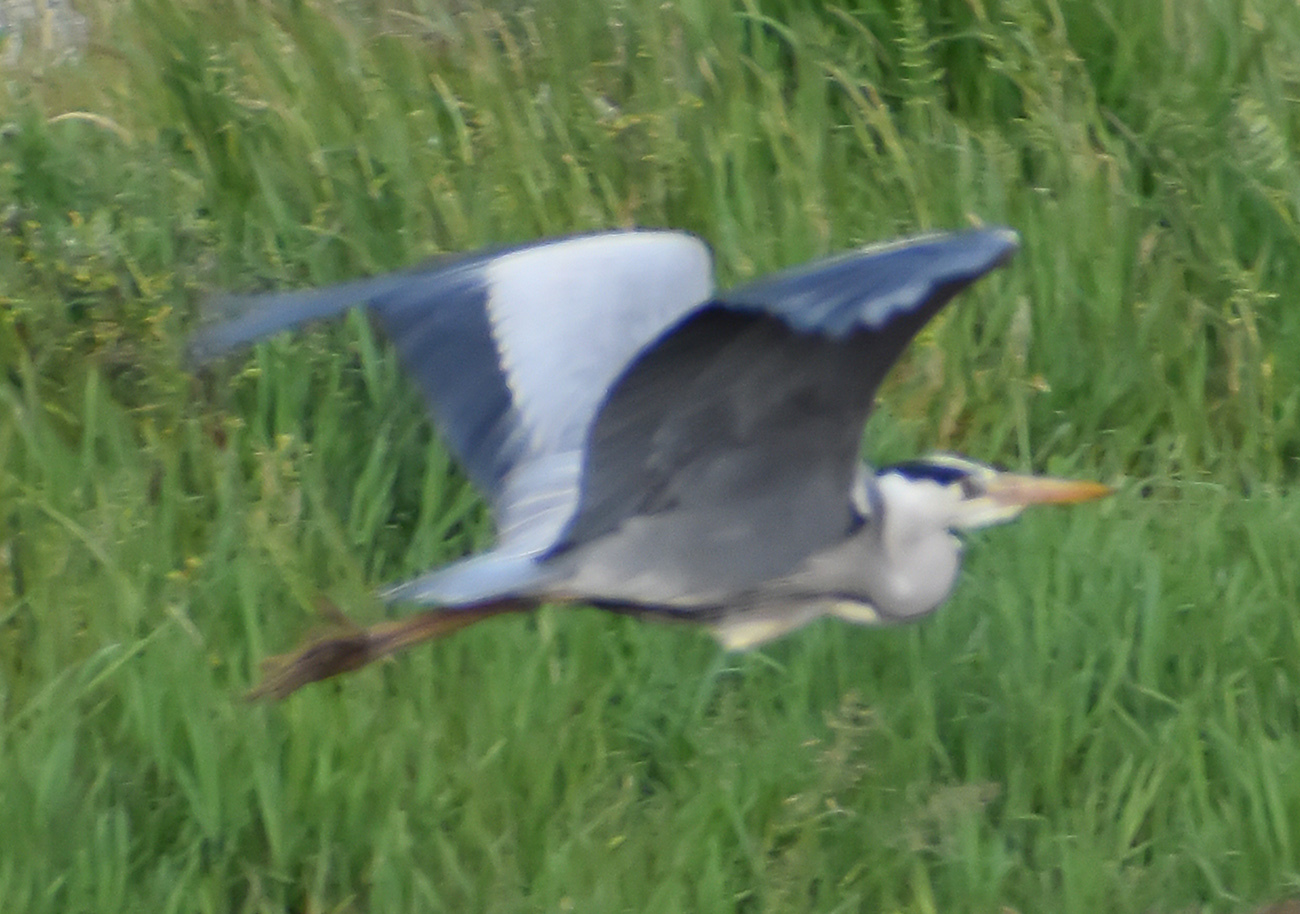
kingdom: Animalia
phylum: Chordata
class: Aves
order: Pelecaniformes
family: Ardeidae
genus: Ardea
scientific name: Ardea cinerea
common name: Grey heron
